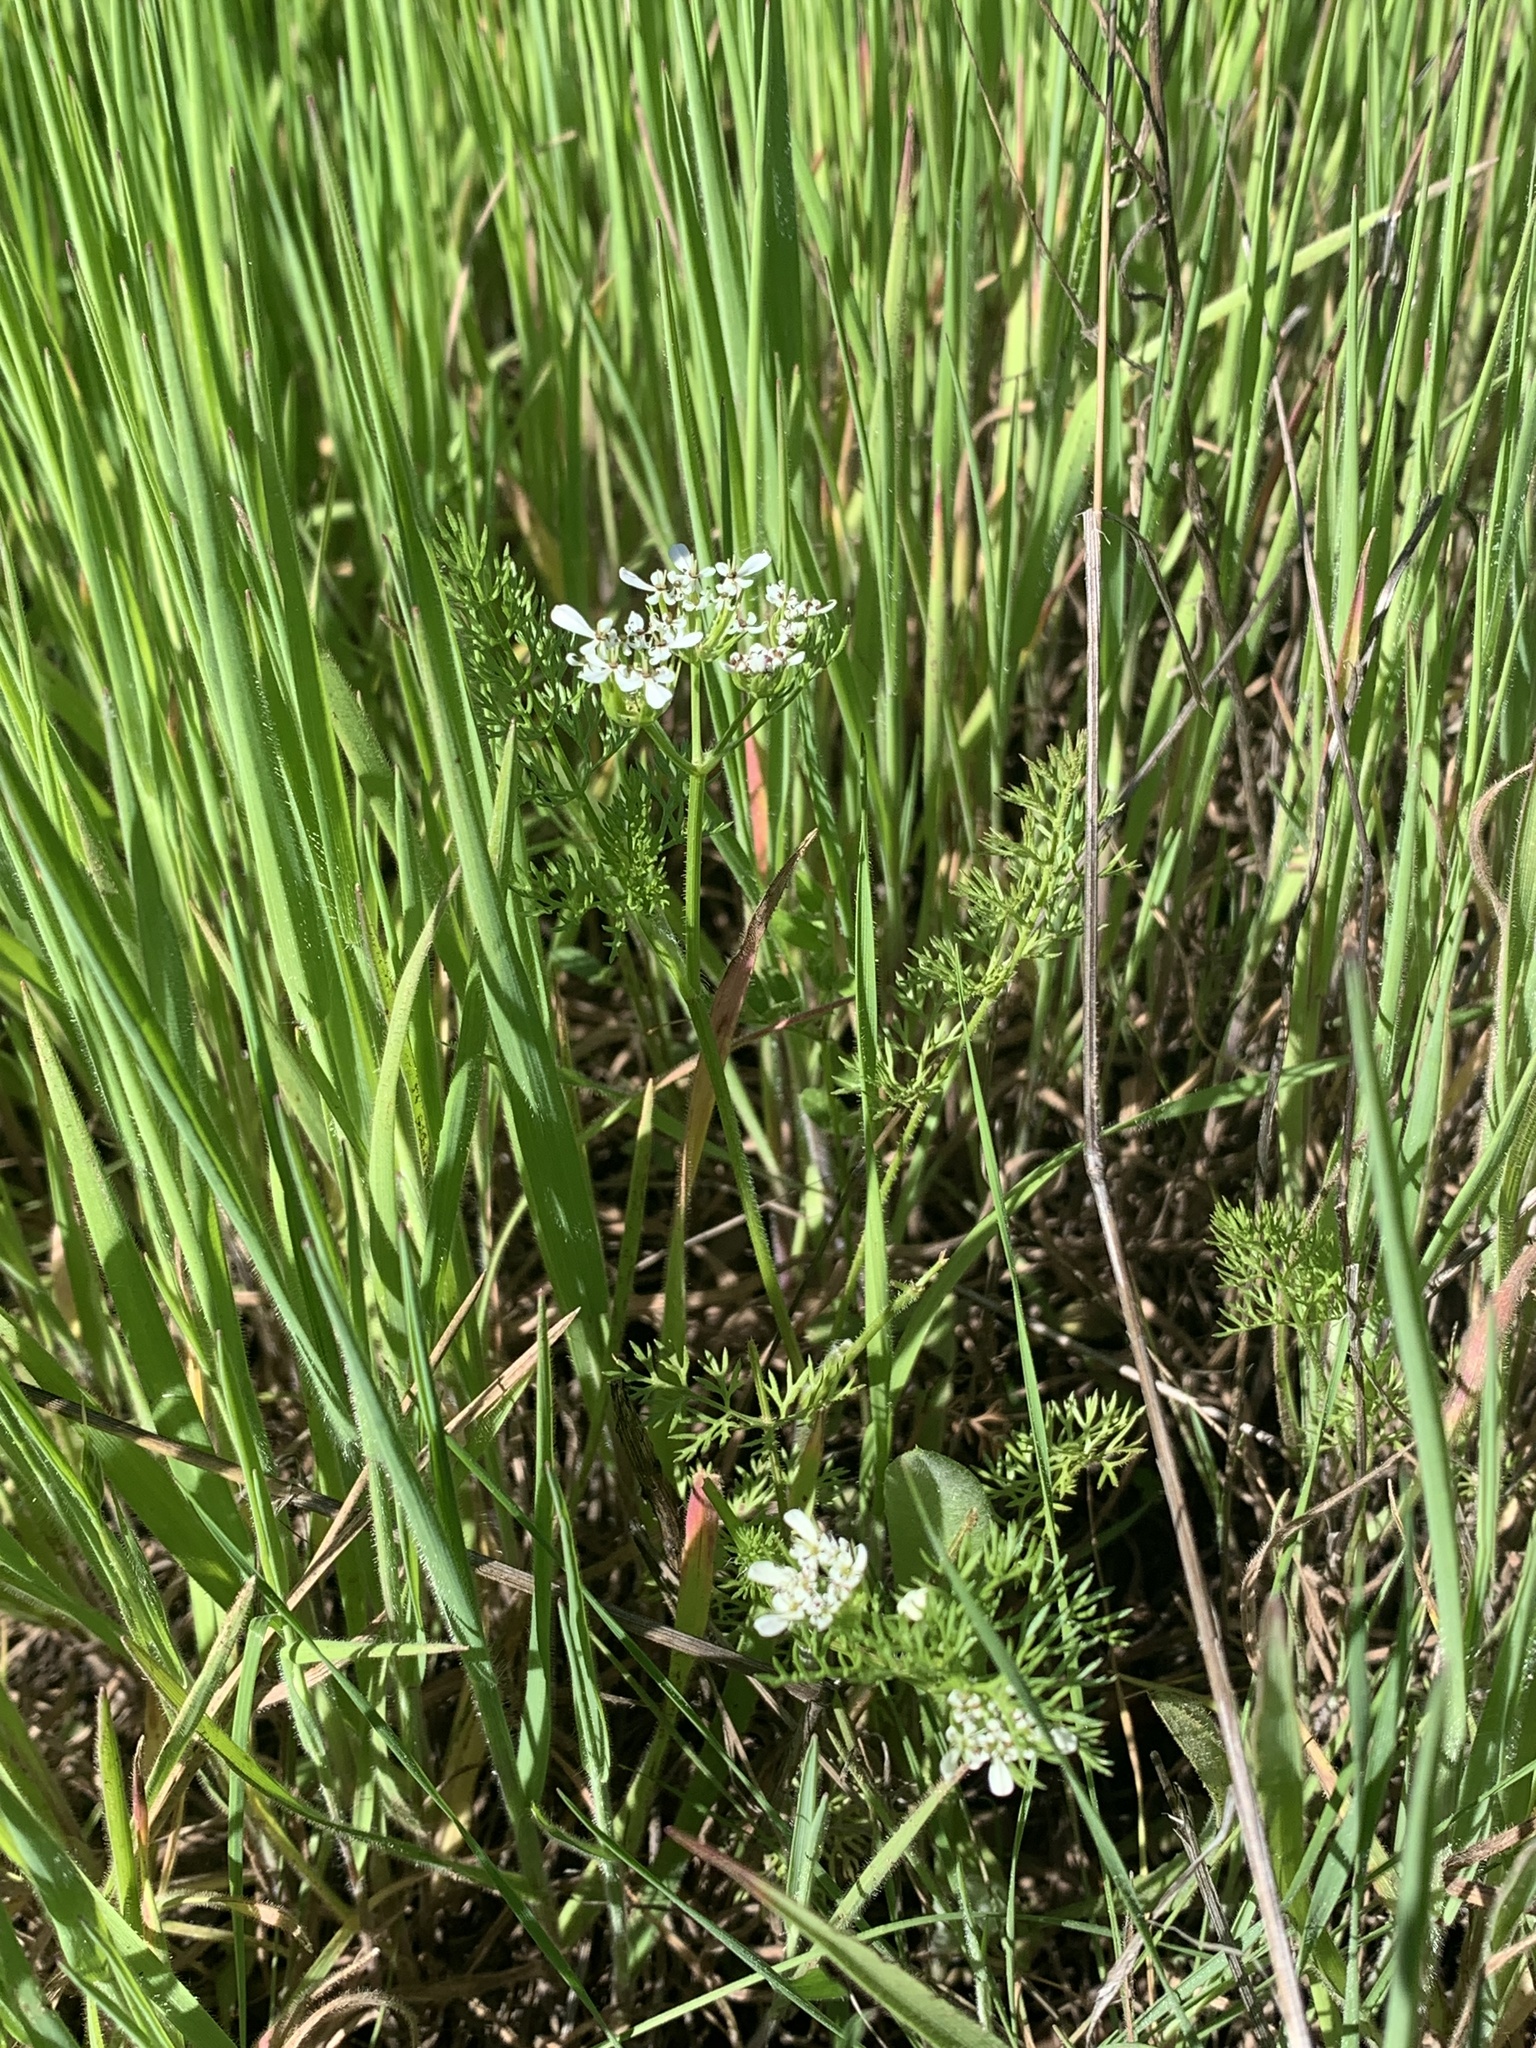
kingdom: Plantae
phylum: Tracheophyta
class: Magnoliopsida
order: Apiales
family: Apiaceae
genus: Scandix
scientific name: Scandix pecten-veneris
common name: Shepherd's-needle
